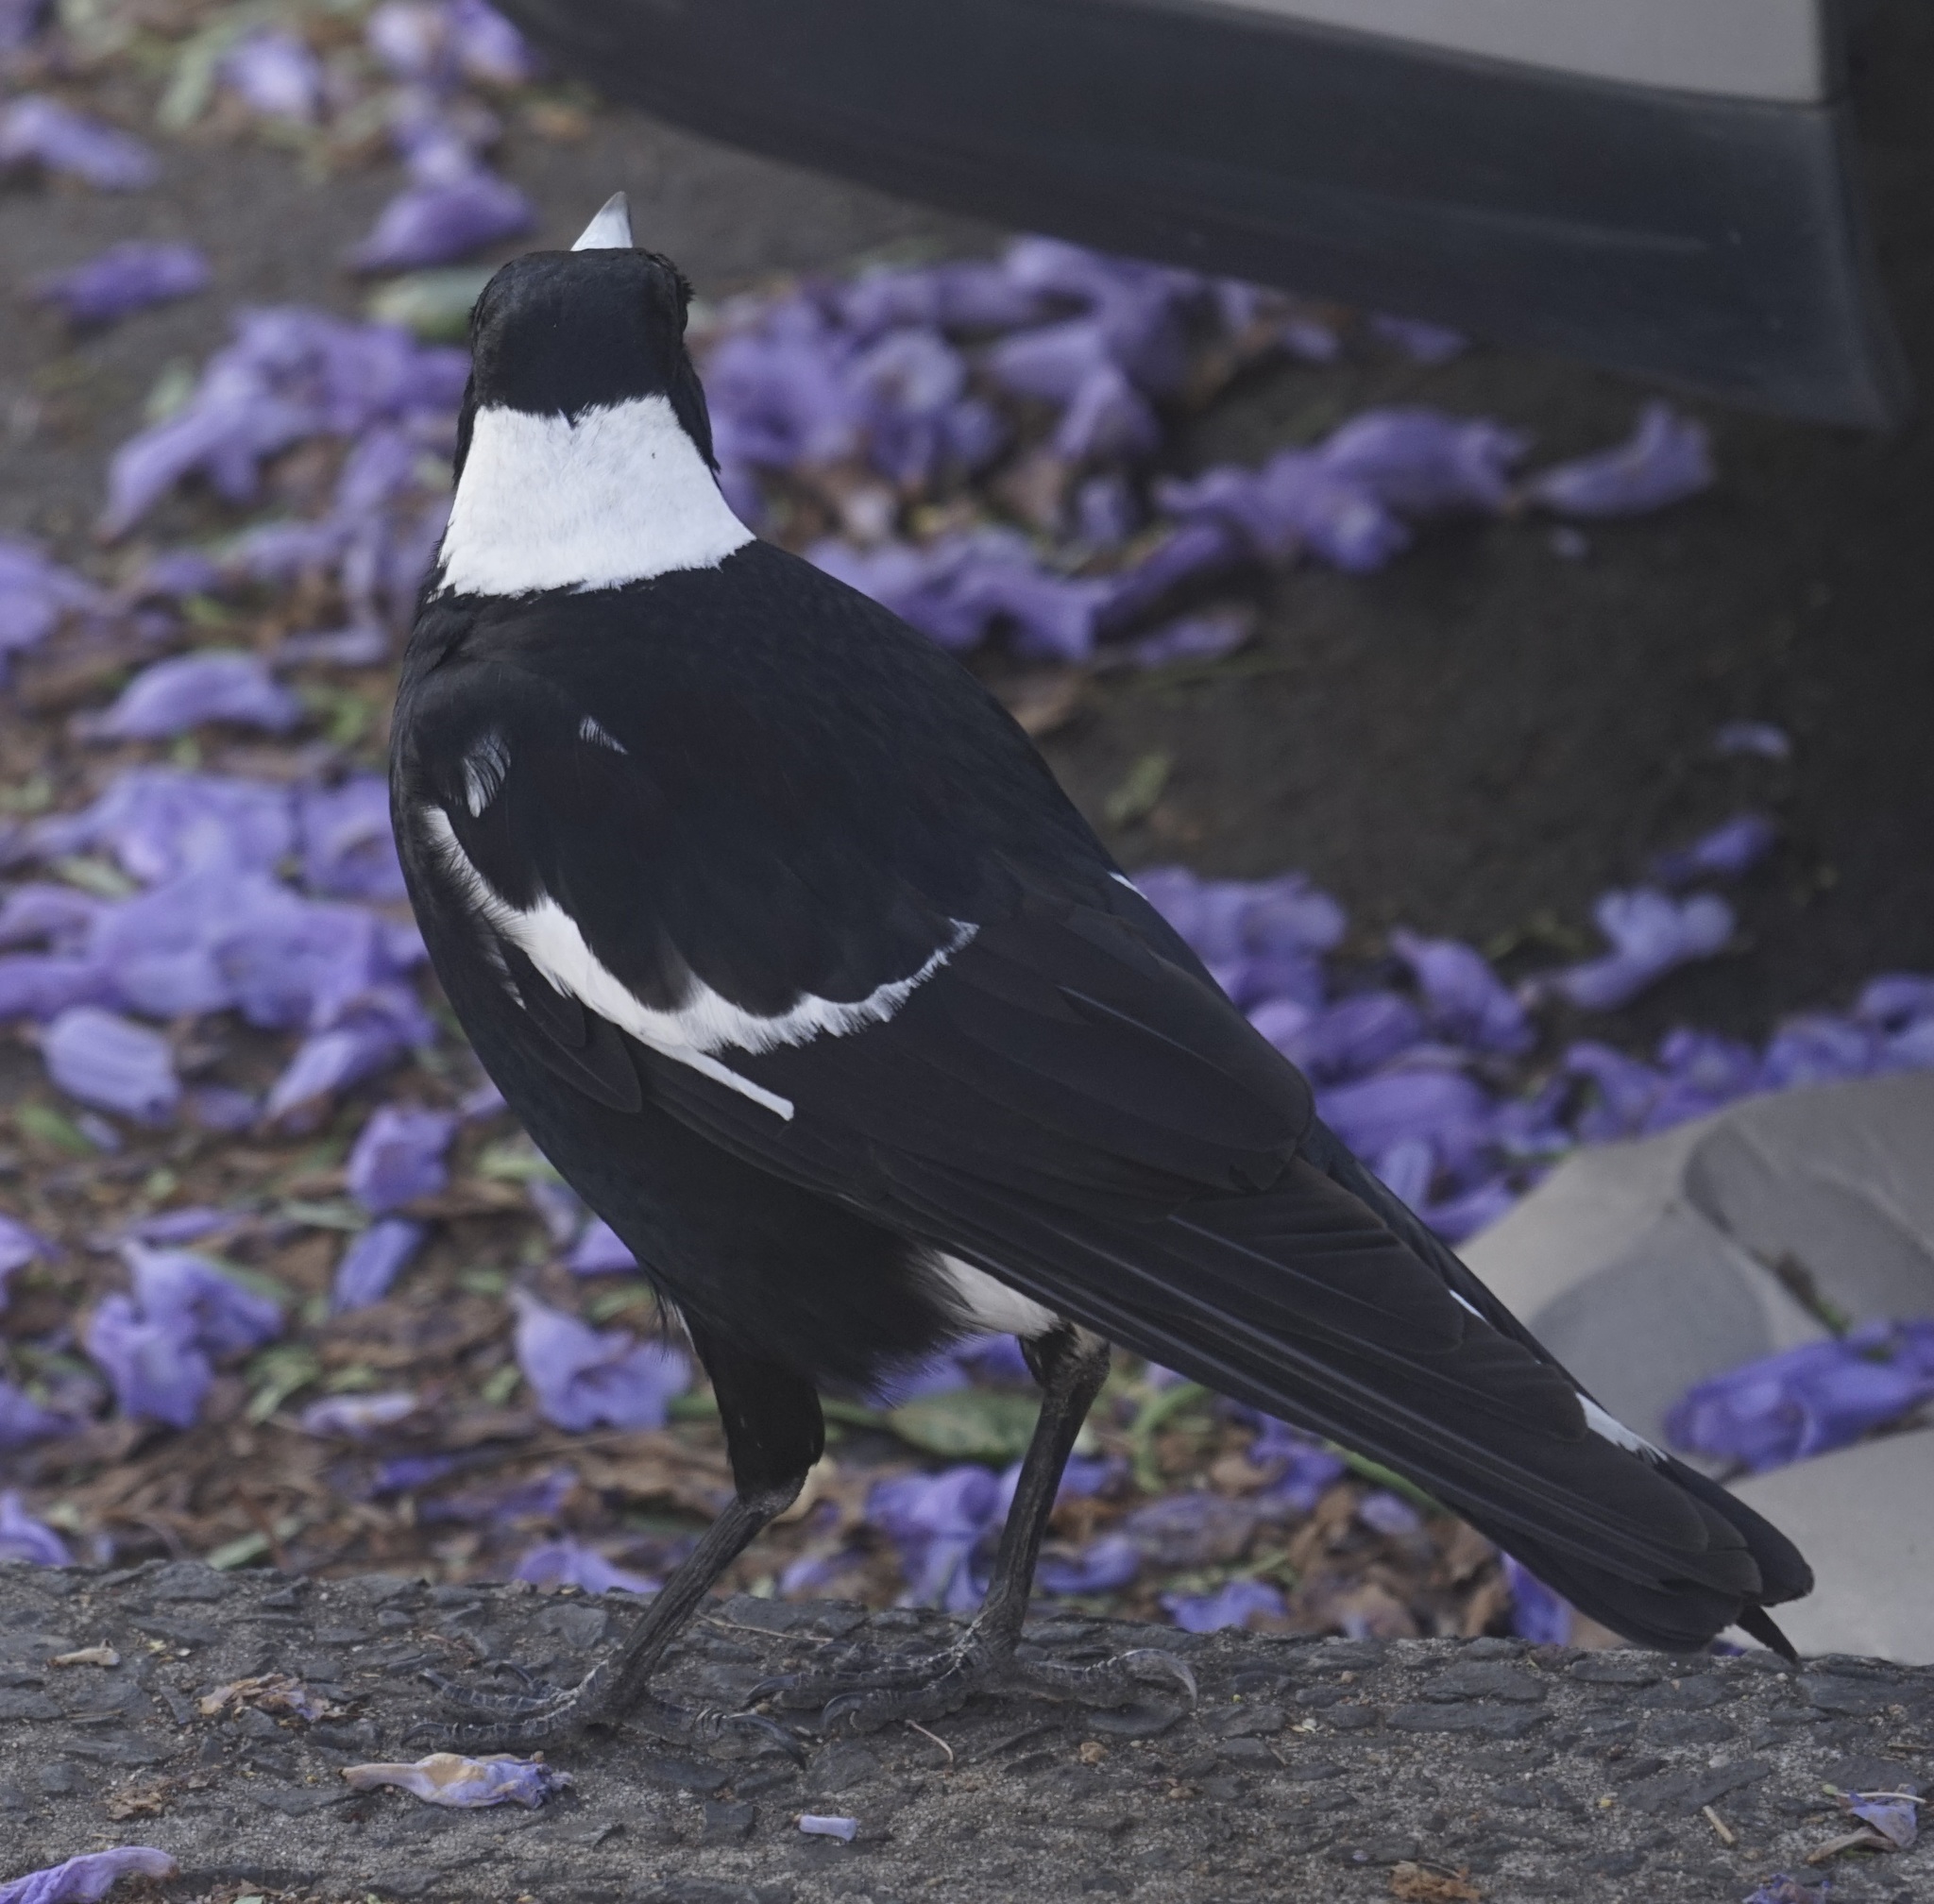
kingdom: Animalia
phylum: Chordata
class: Aves
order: Passeriformes
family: Cracticidae
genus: Gymnorhina
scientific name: Gymnorhina tibicen
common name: Australian magpie
